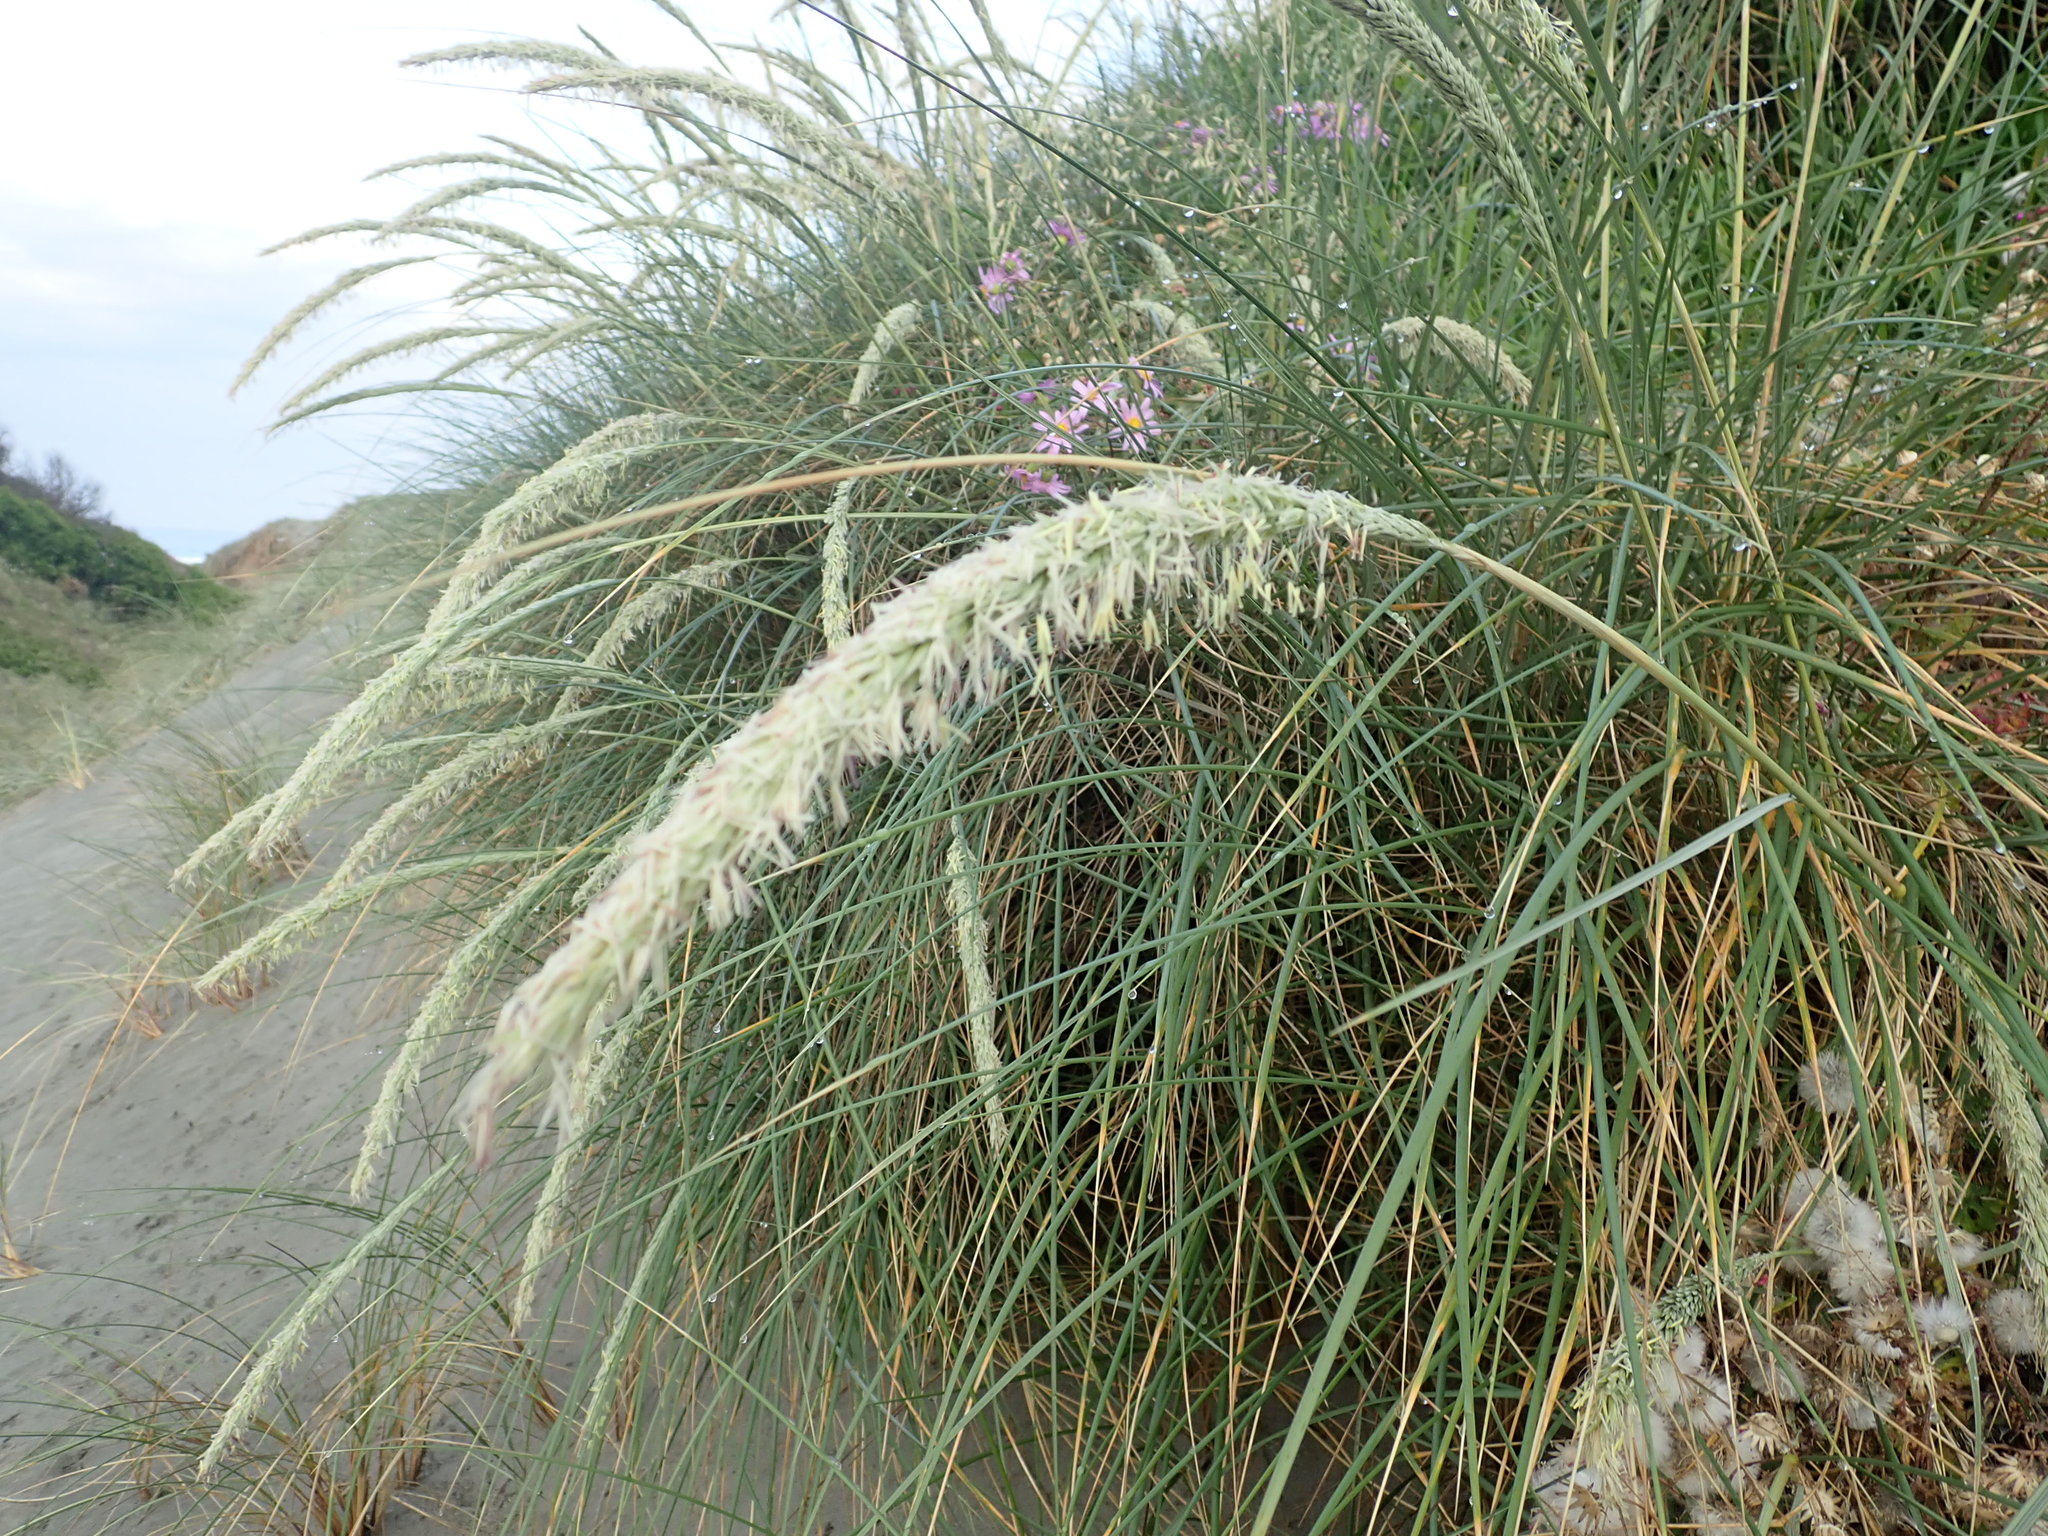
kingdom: Plantae
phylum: Tracheophyta
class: Liliopsida
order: Poales
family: Poaceae
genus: Calamagrostis
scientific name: Calamagrostis arenaria
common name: European beachgrass
